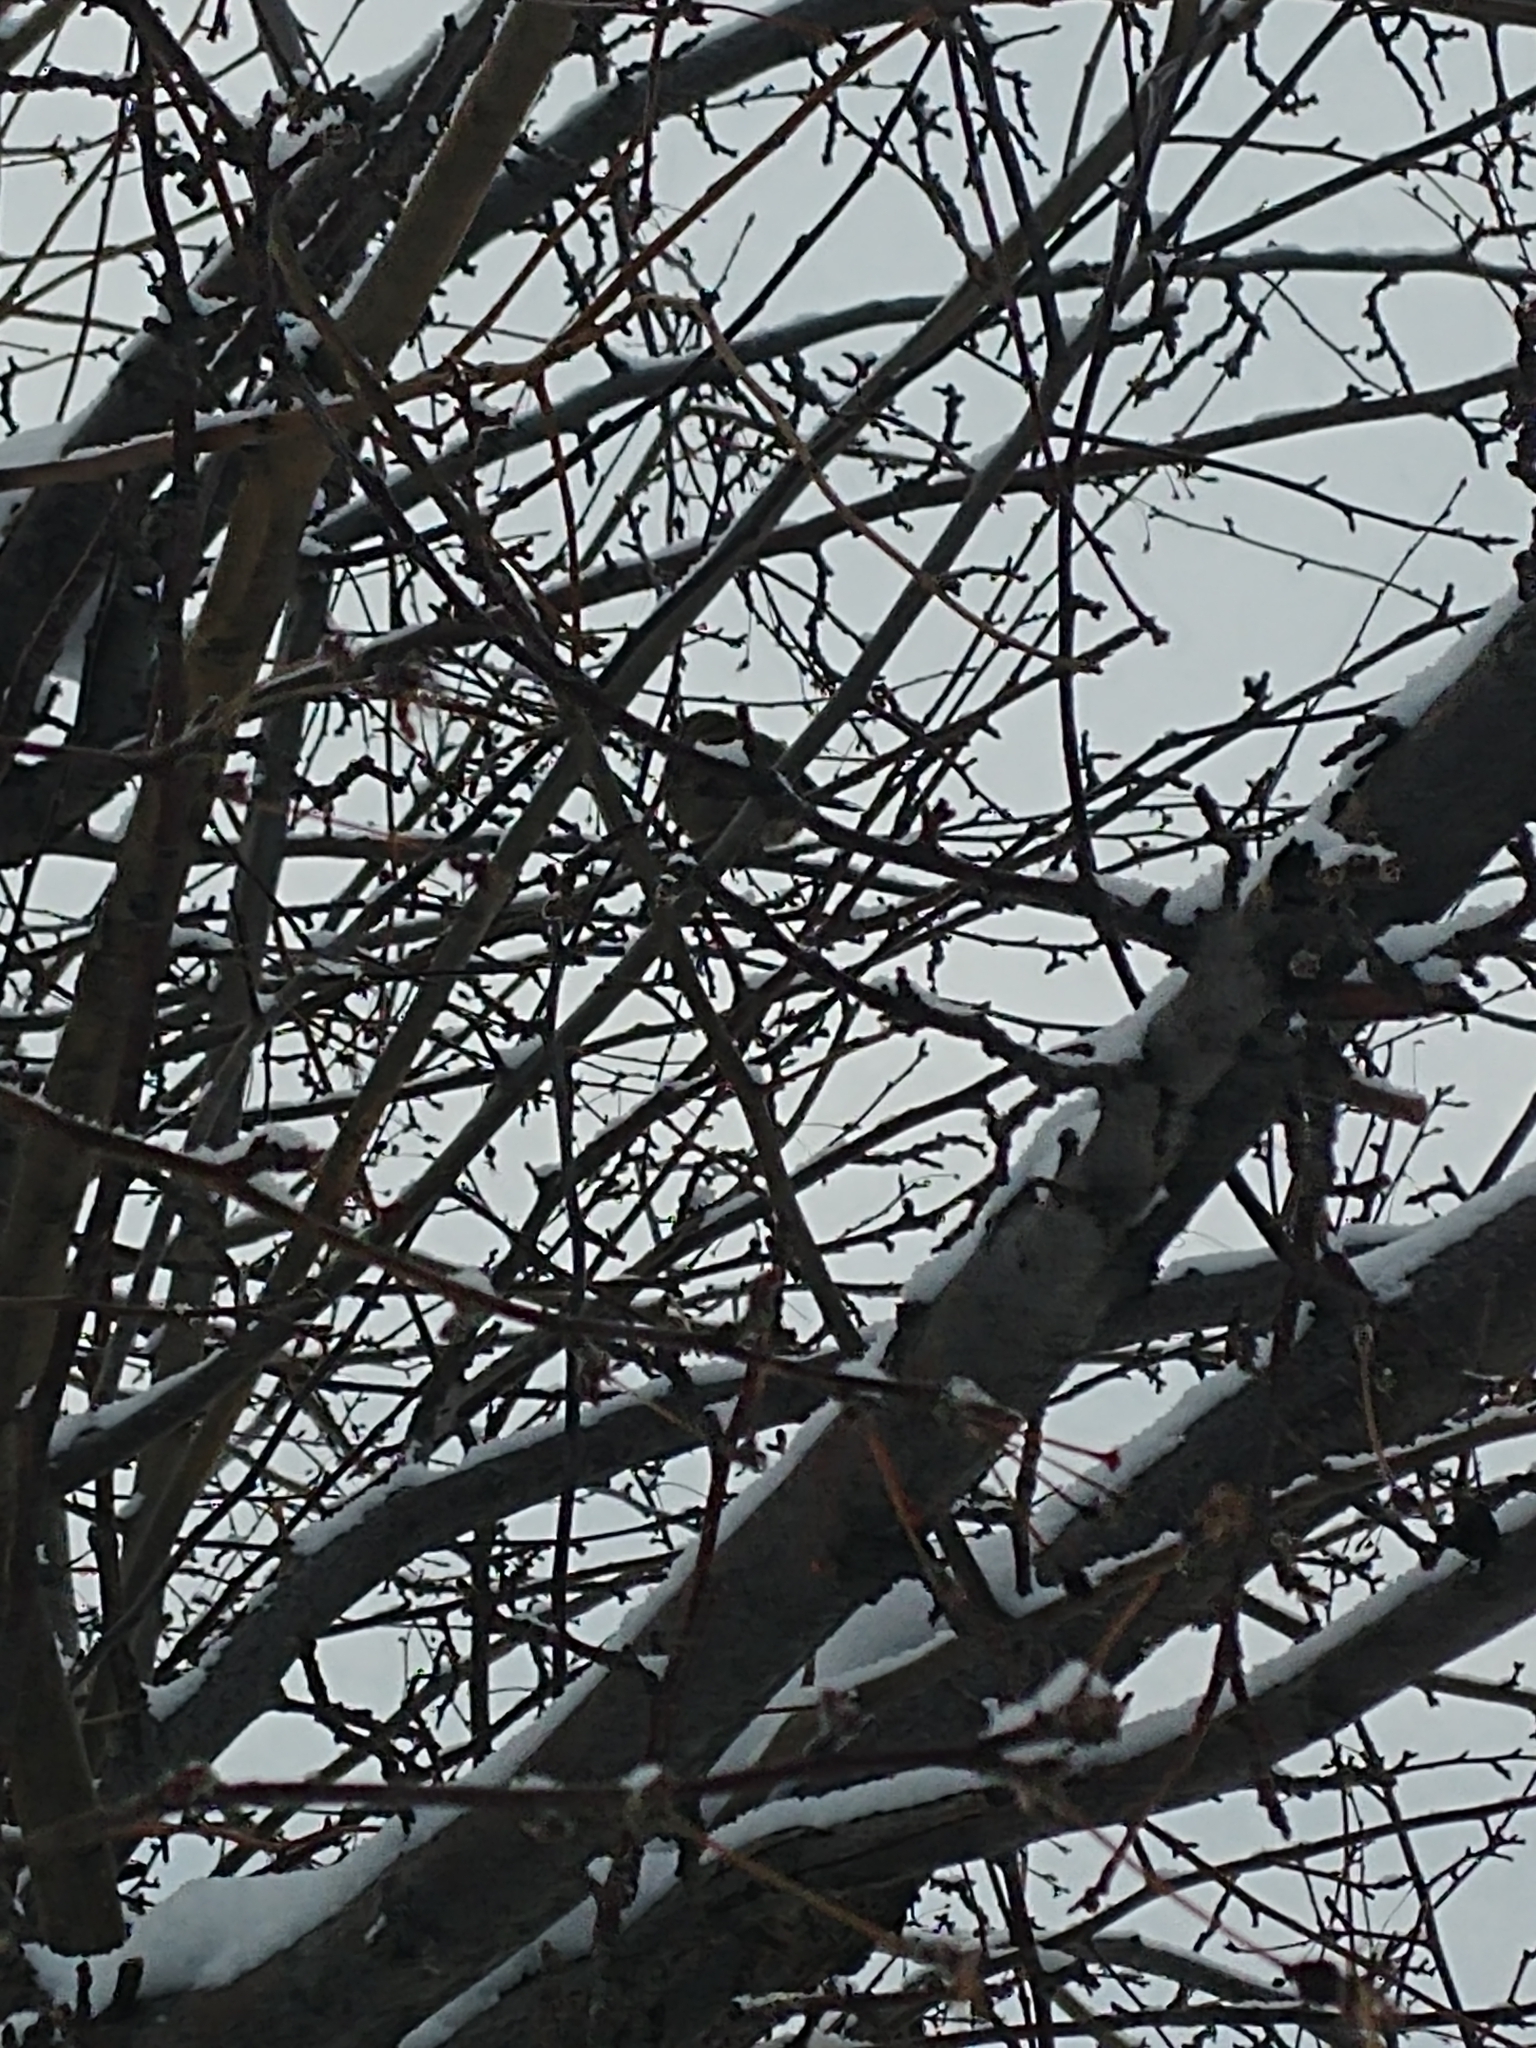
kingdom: Animalia
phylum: Chordata
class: Aves
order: Passeriformes
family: Passeridae
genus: Passer
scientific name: Passer domesticus
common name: House sparrow
